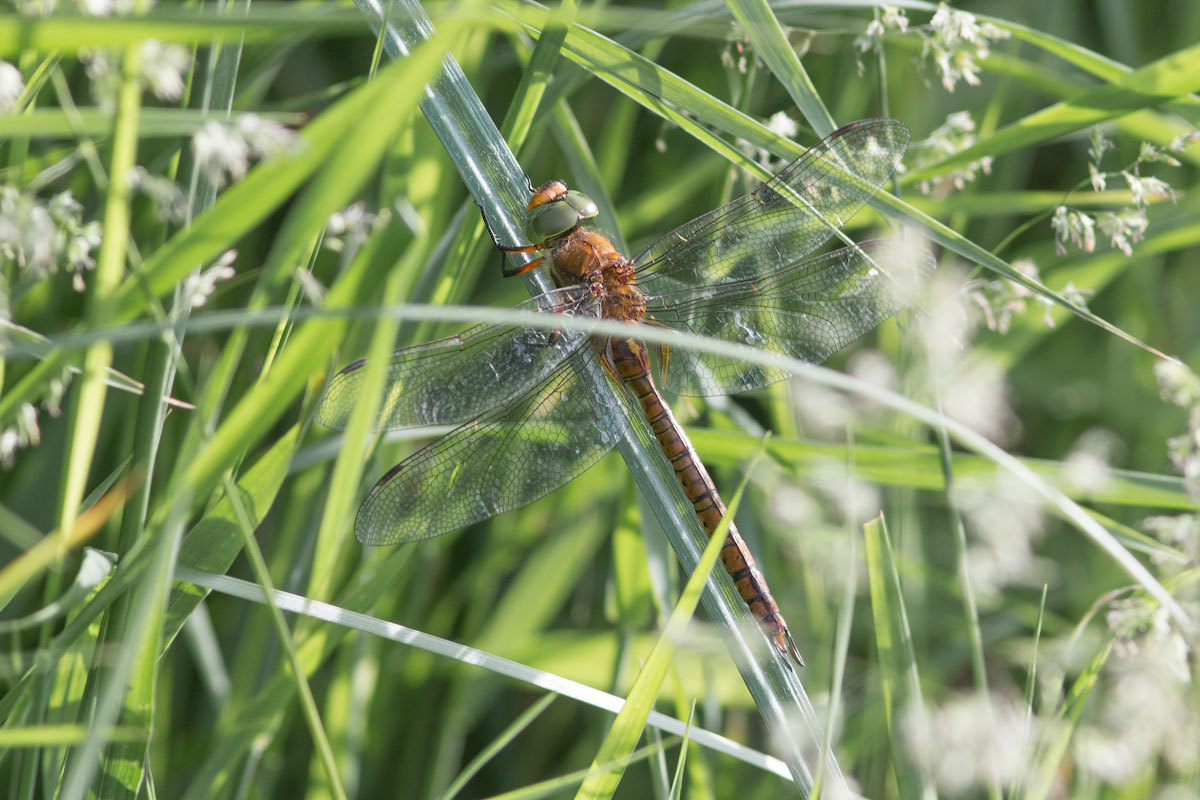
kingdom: Animalia
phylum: Arthropoda
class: Insecta
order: Odonata
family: Aeshnidae
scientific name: Aeshnidae
